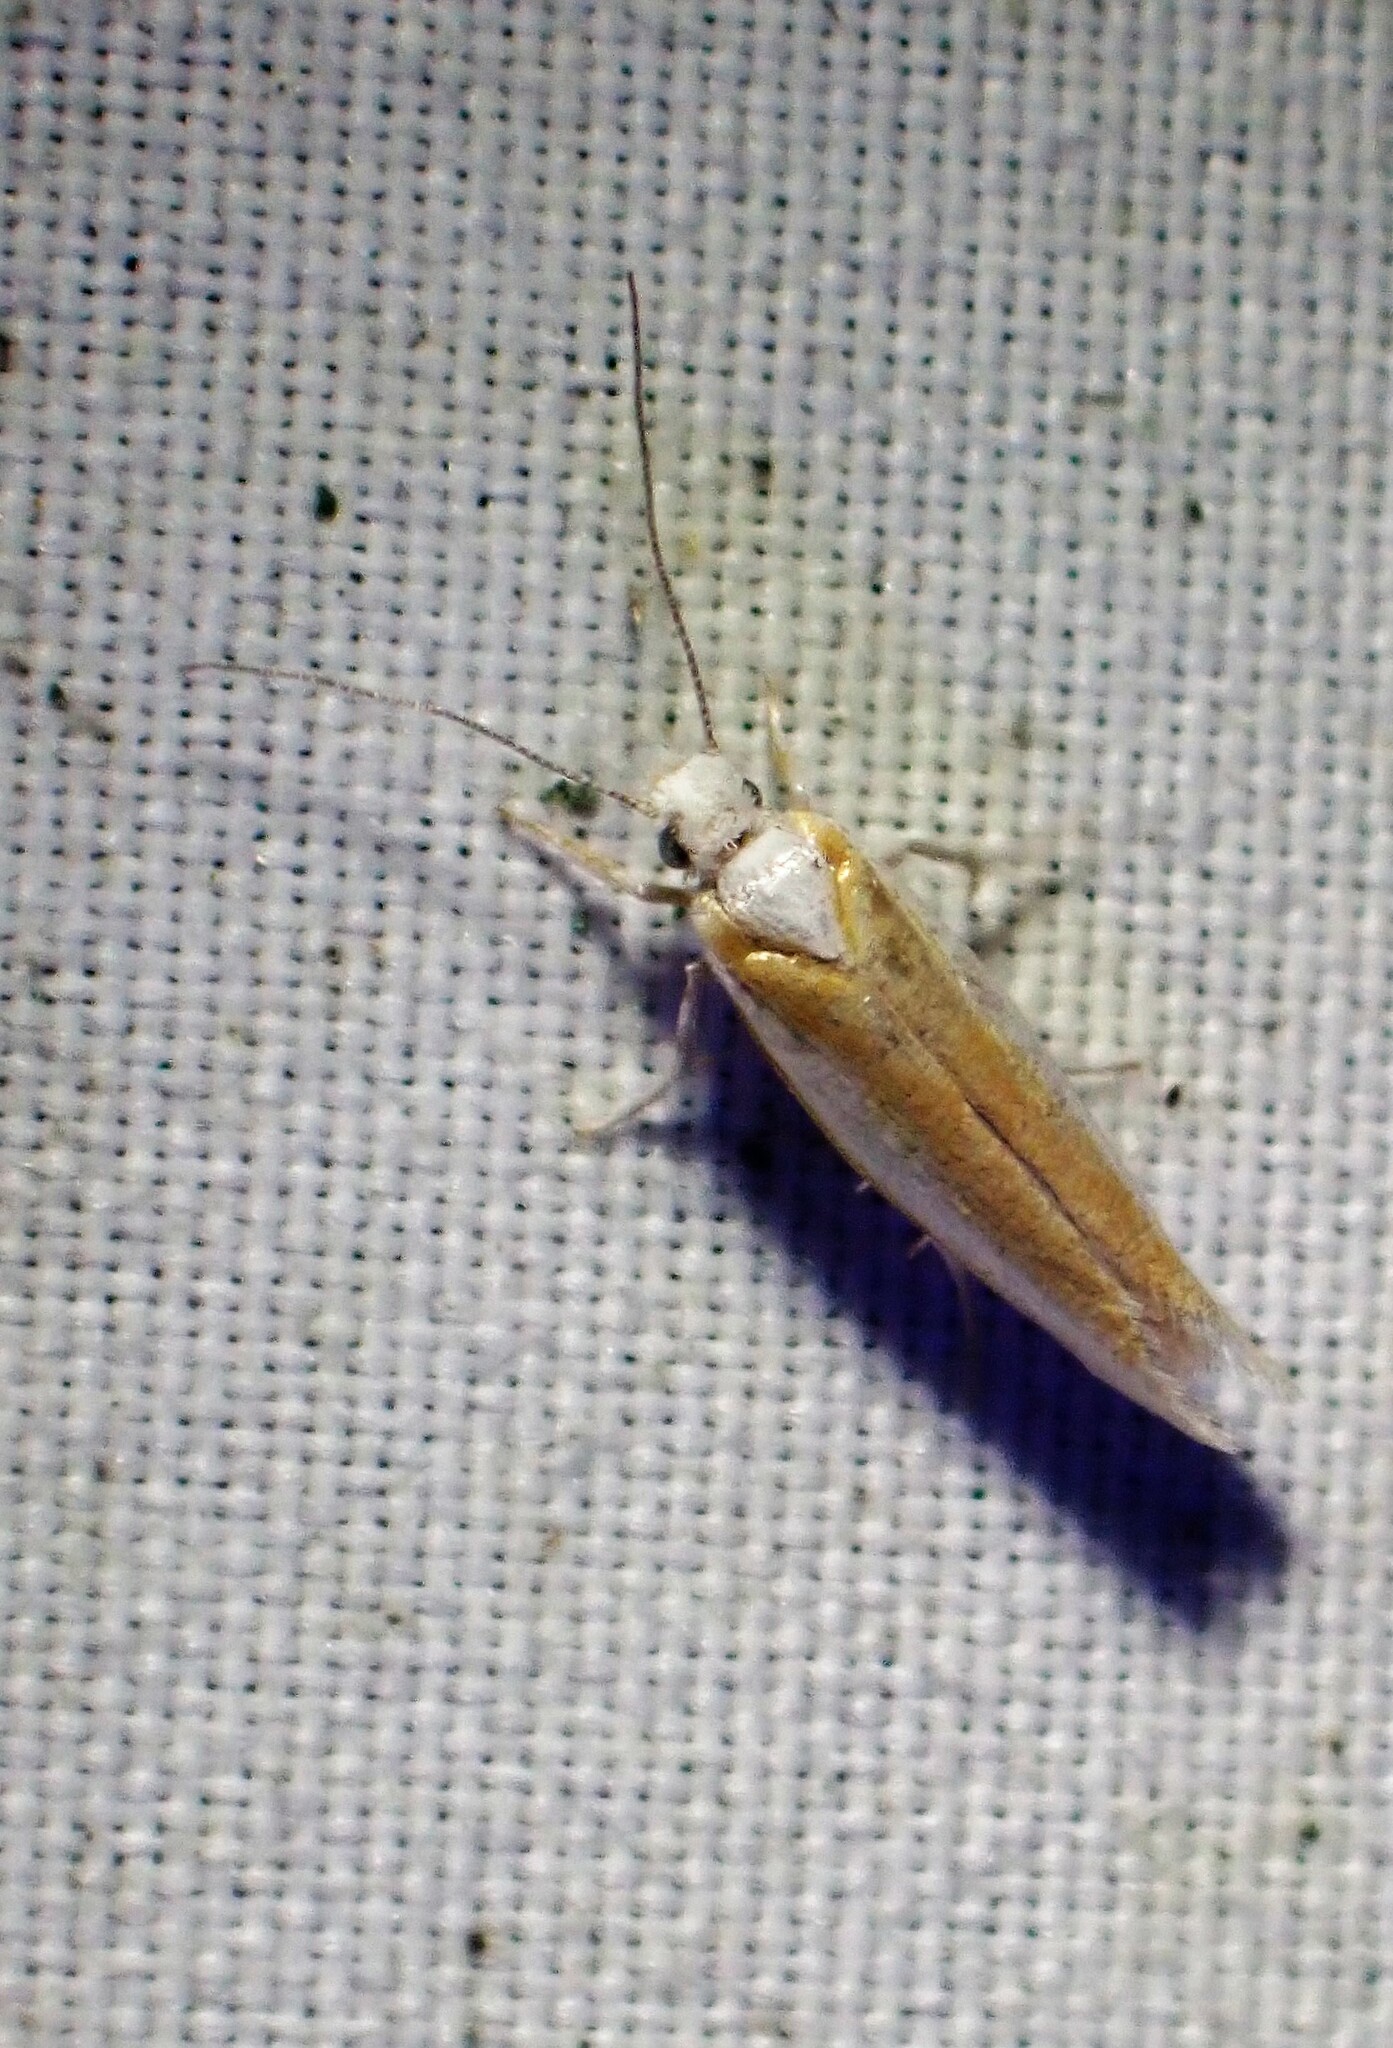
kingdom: Animalia
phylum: Arthropoda
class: Insecta
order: Lepidoptera
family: Yponomeutidae
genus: Zelleria
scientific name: Zelleria haimbachi
